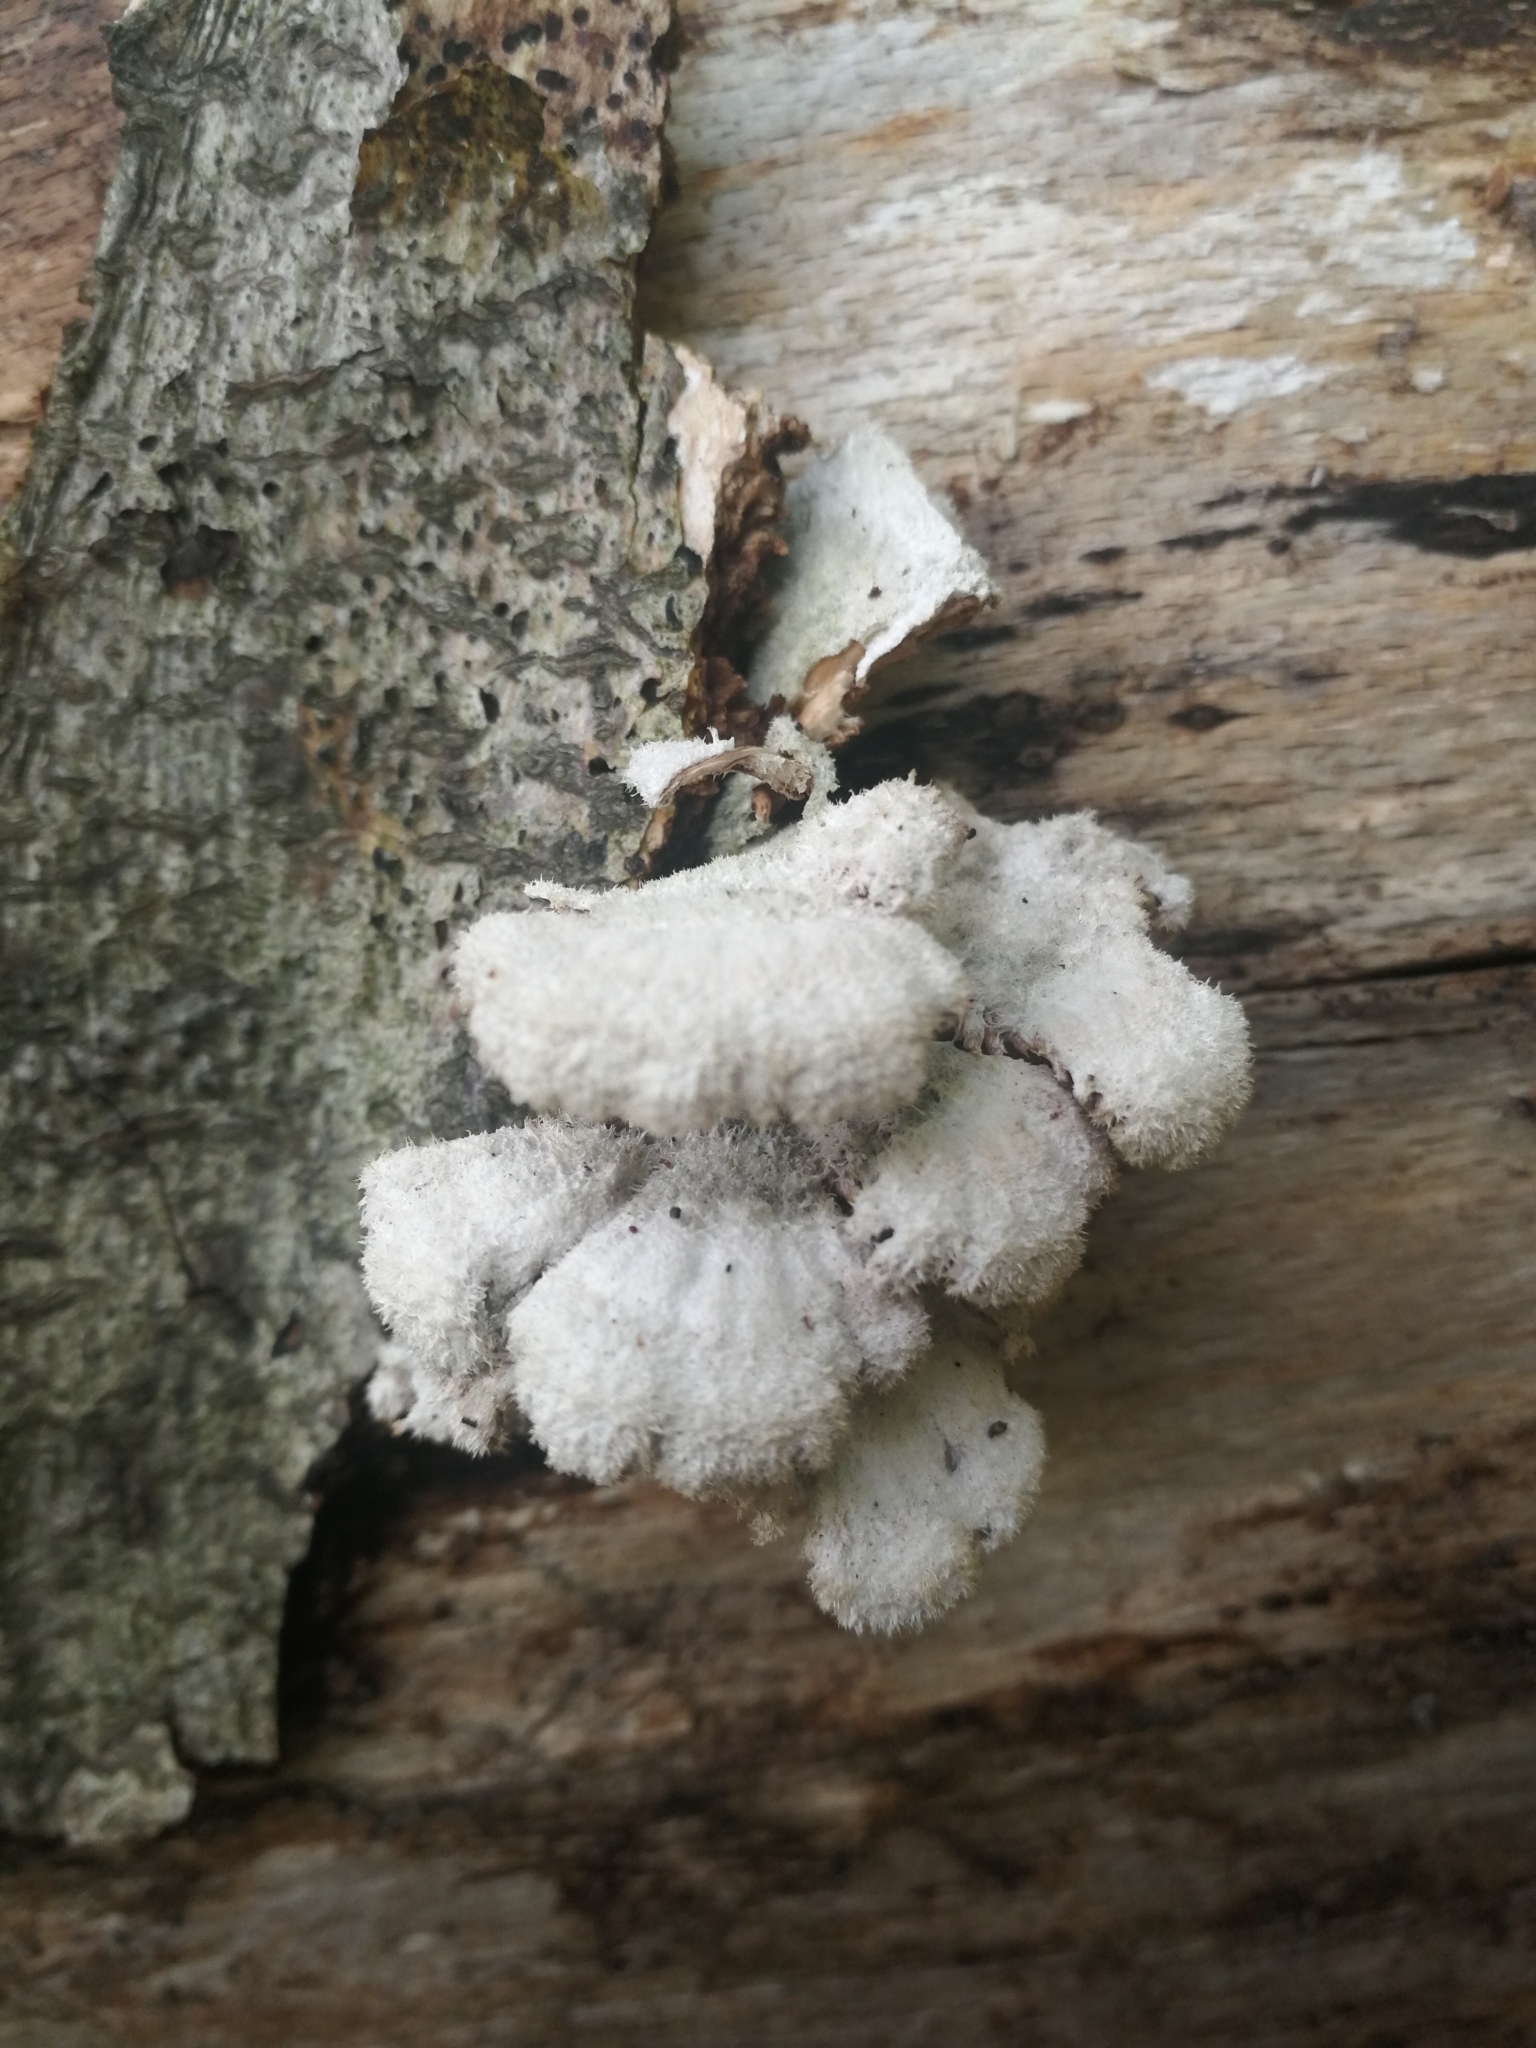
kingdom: Fungi
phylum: Basidiomycota
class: Agaricomycetes
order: Agaricales
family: Schizophyllaceae
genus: Schizophyllum
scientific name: Schizophyllum commune
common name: Common porecrust
